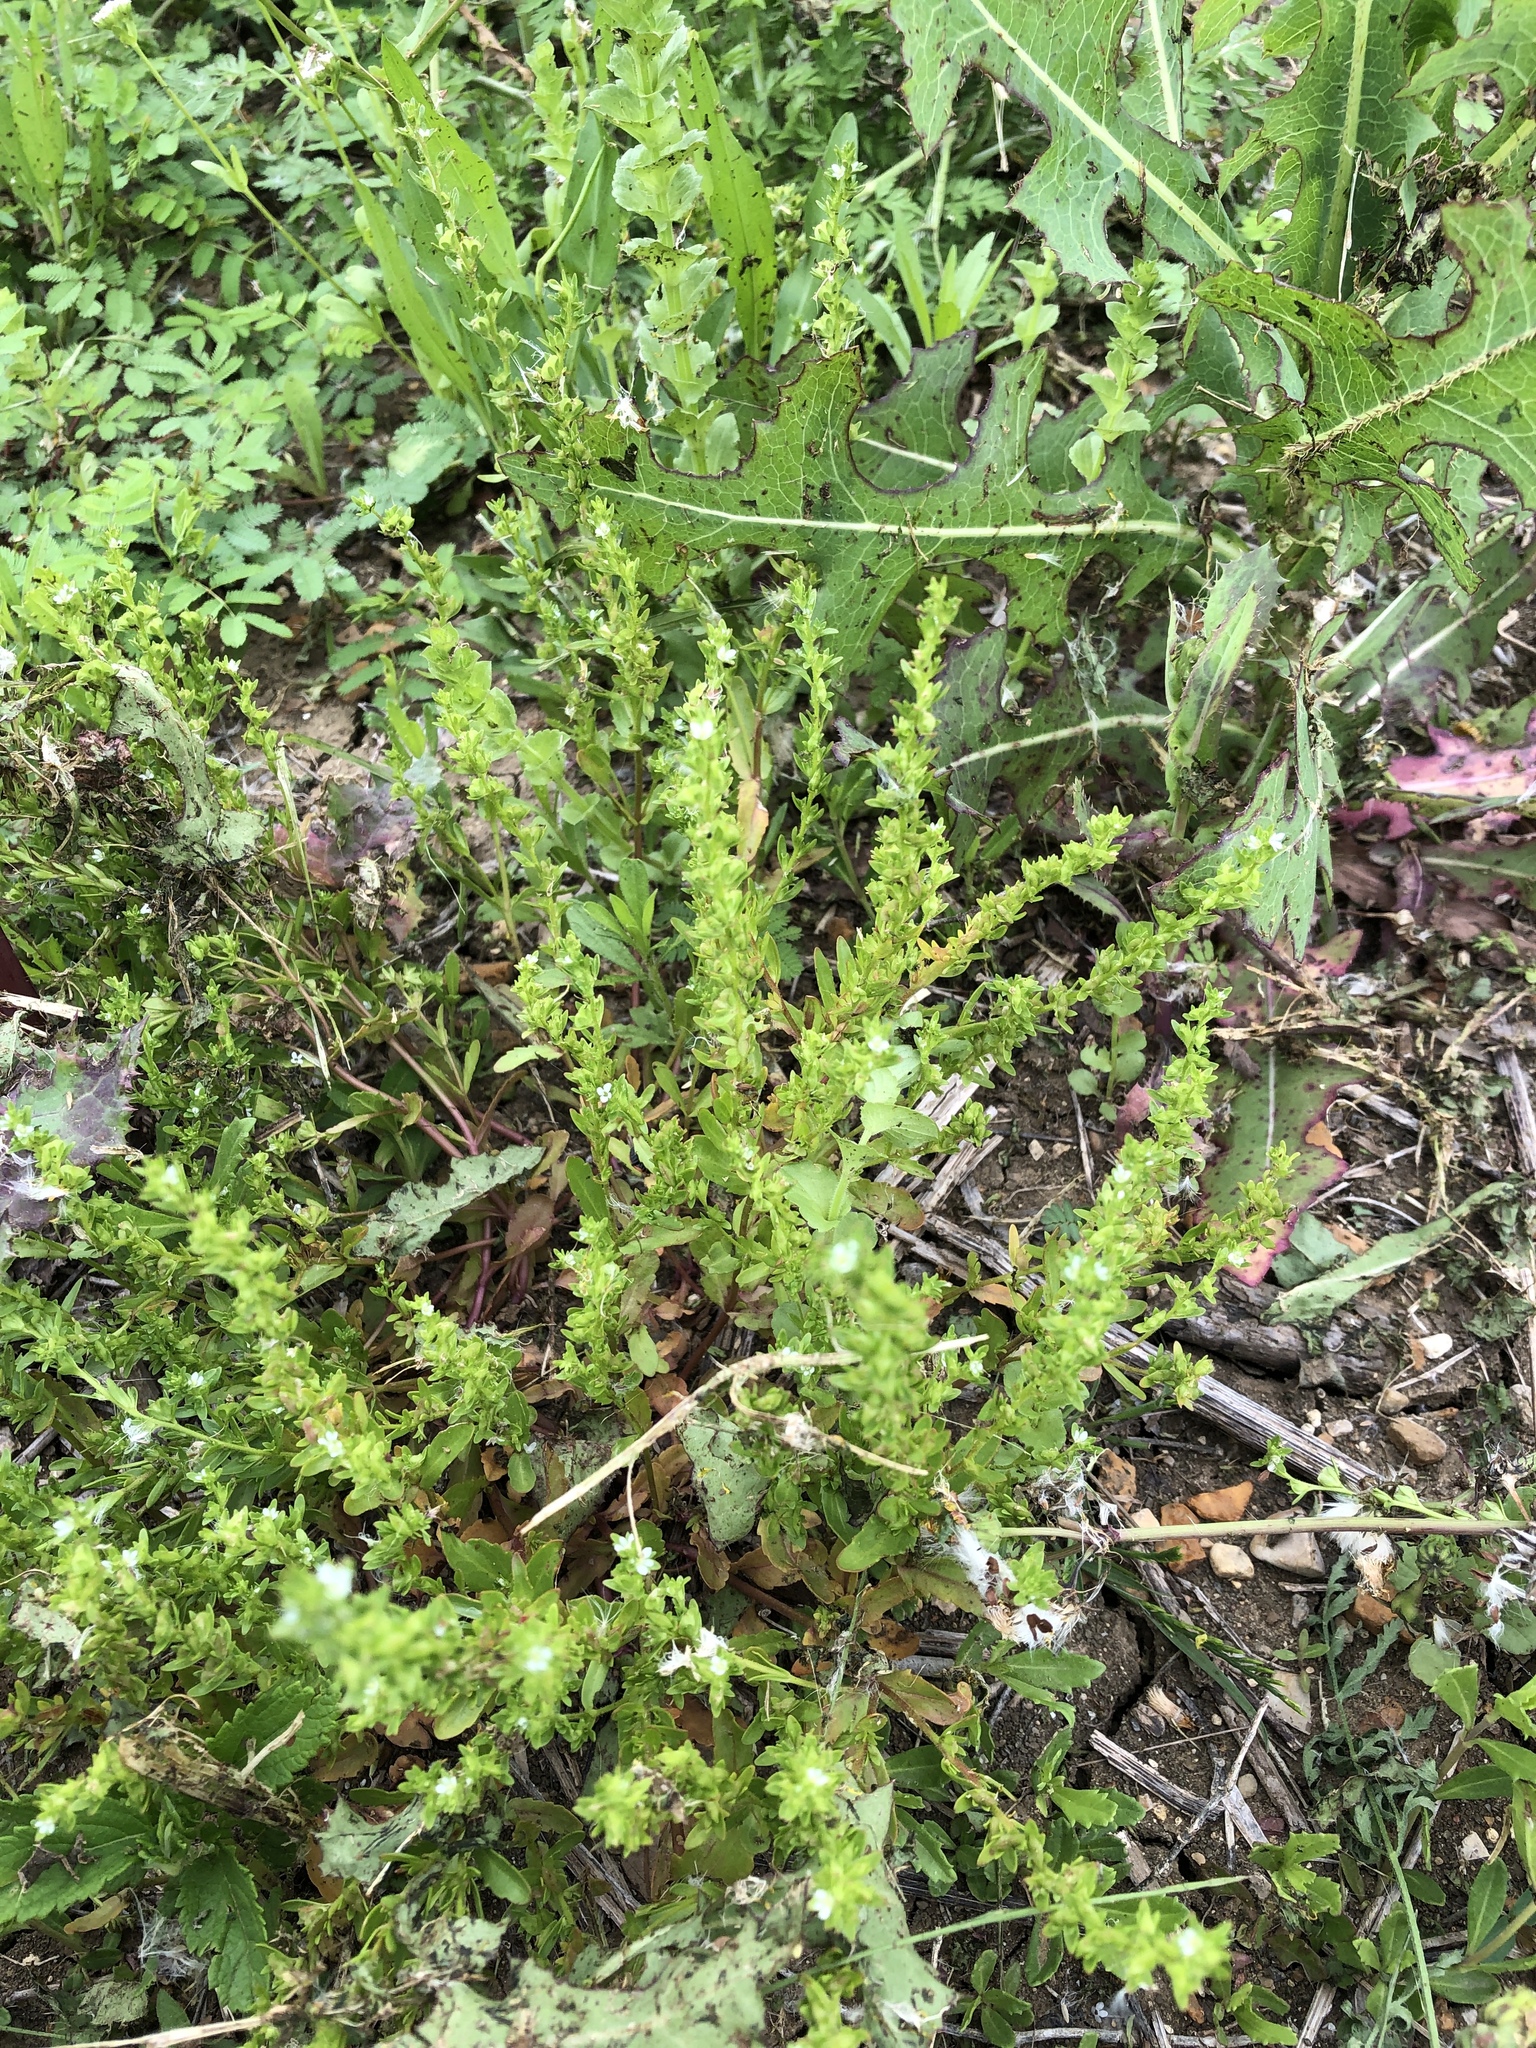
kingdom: Plantae
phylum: Tracheophyta
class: Magnoliopsida
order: Lamiales
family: Plantaginaceae
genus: Veronica
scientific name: Veronica peregrina
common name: Neckweed
